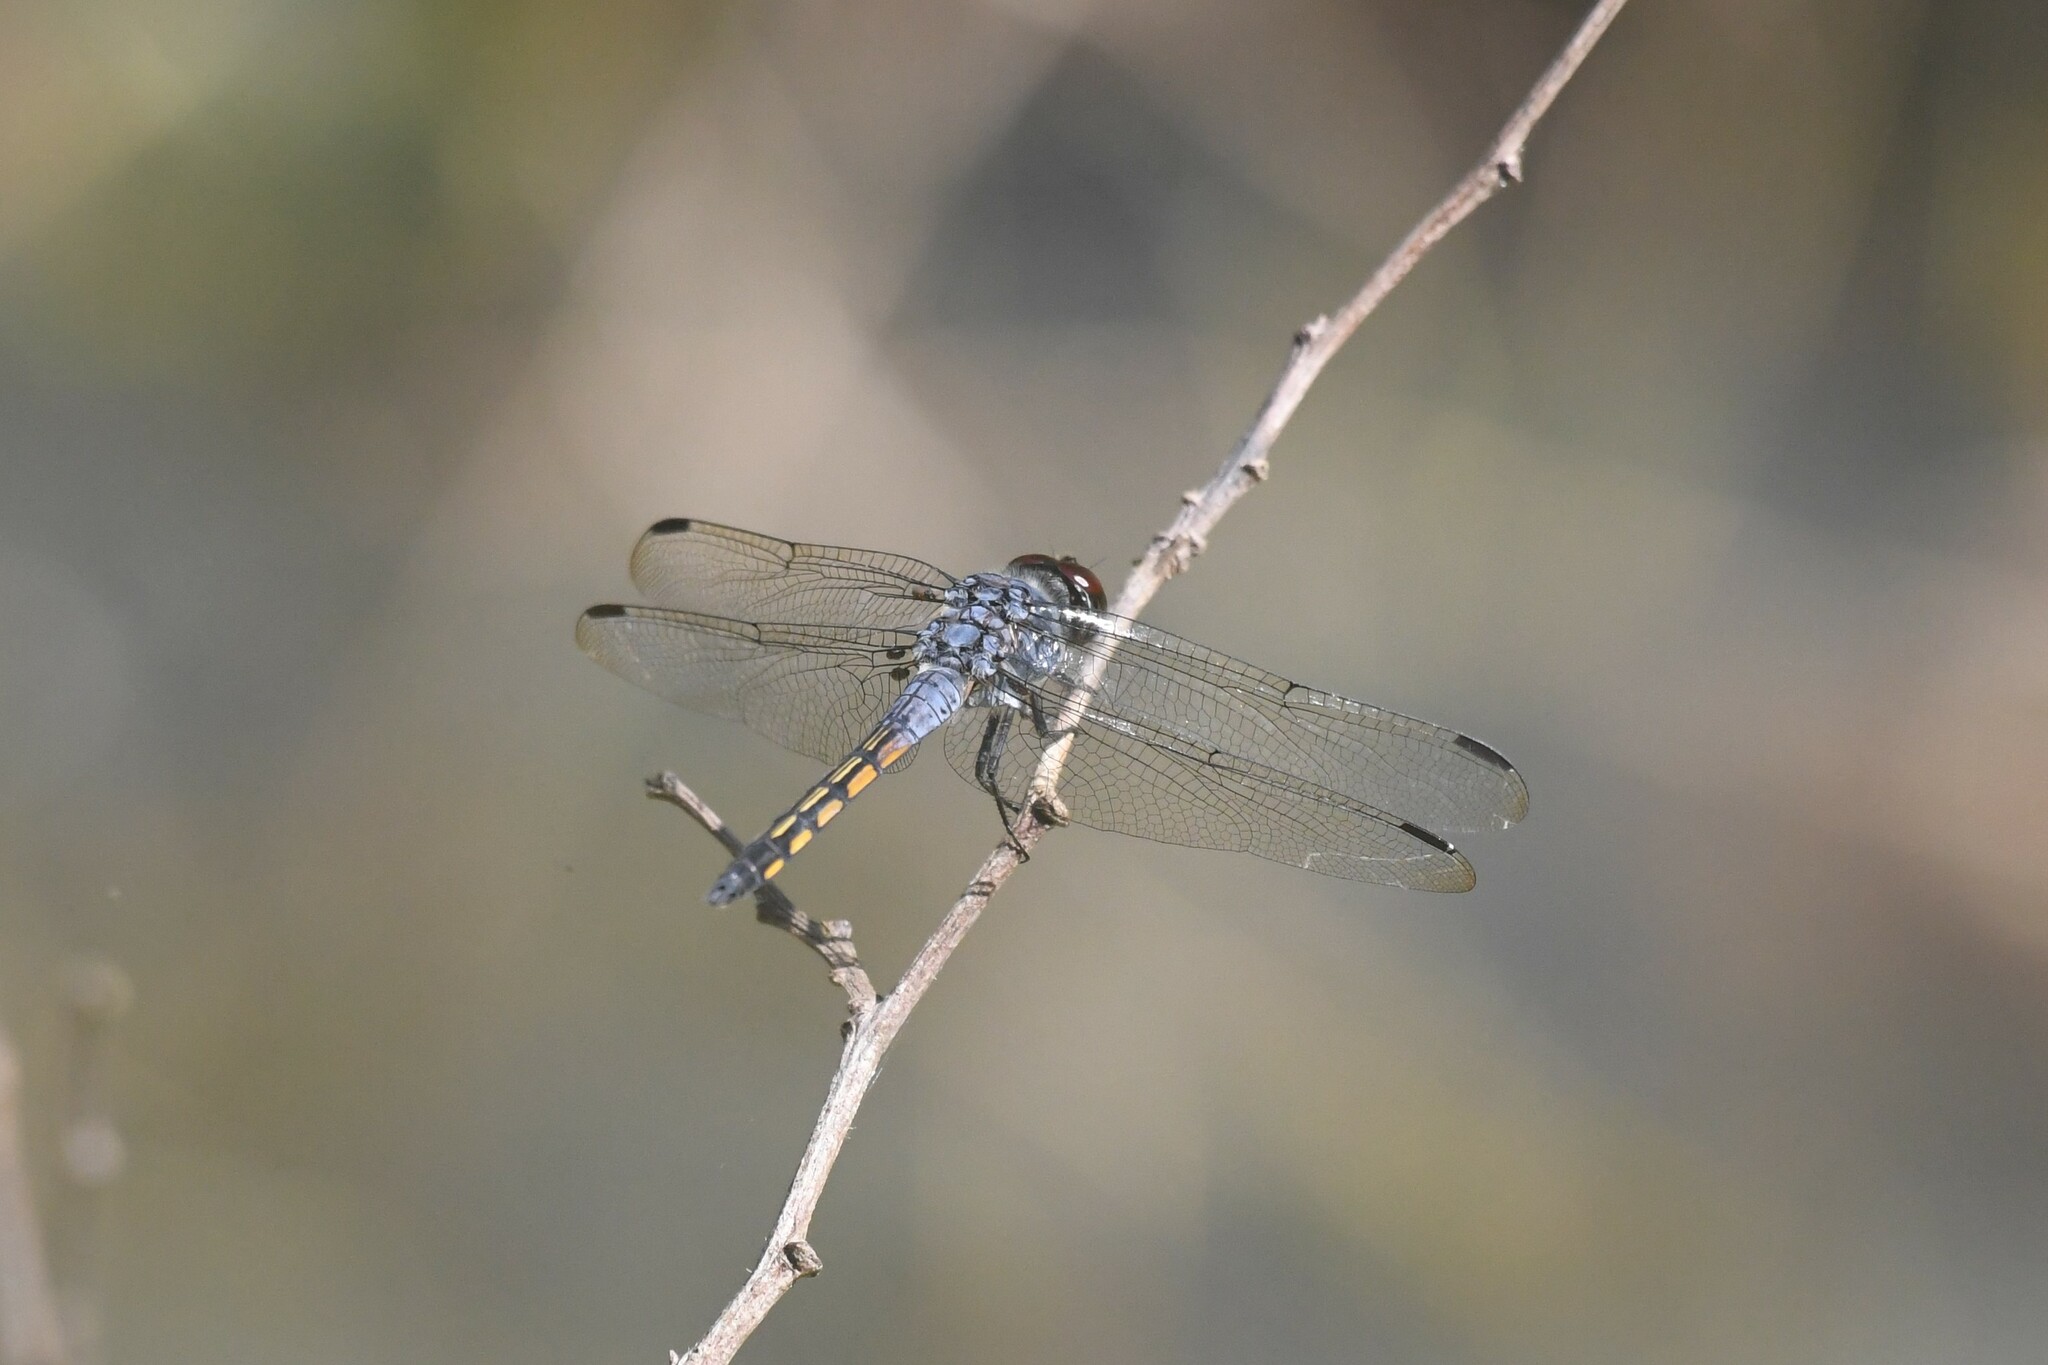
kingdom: Animalia
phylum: Arthropoda
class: Insecta
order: Odonata
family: Libellulidae
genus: Potamarcha
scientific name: Potamarcha congener
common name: Blue chaser
